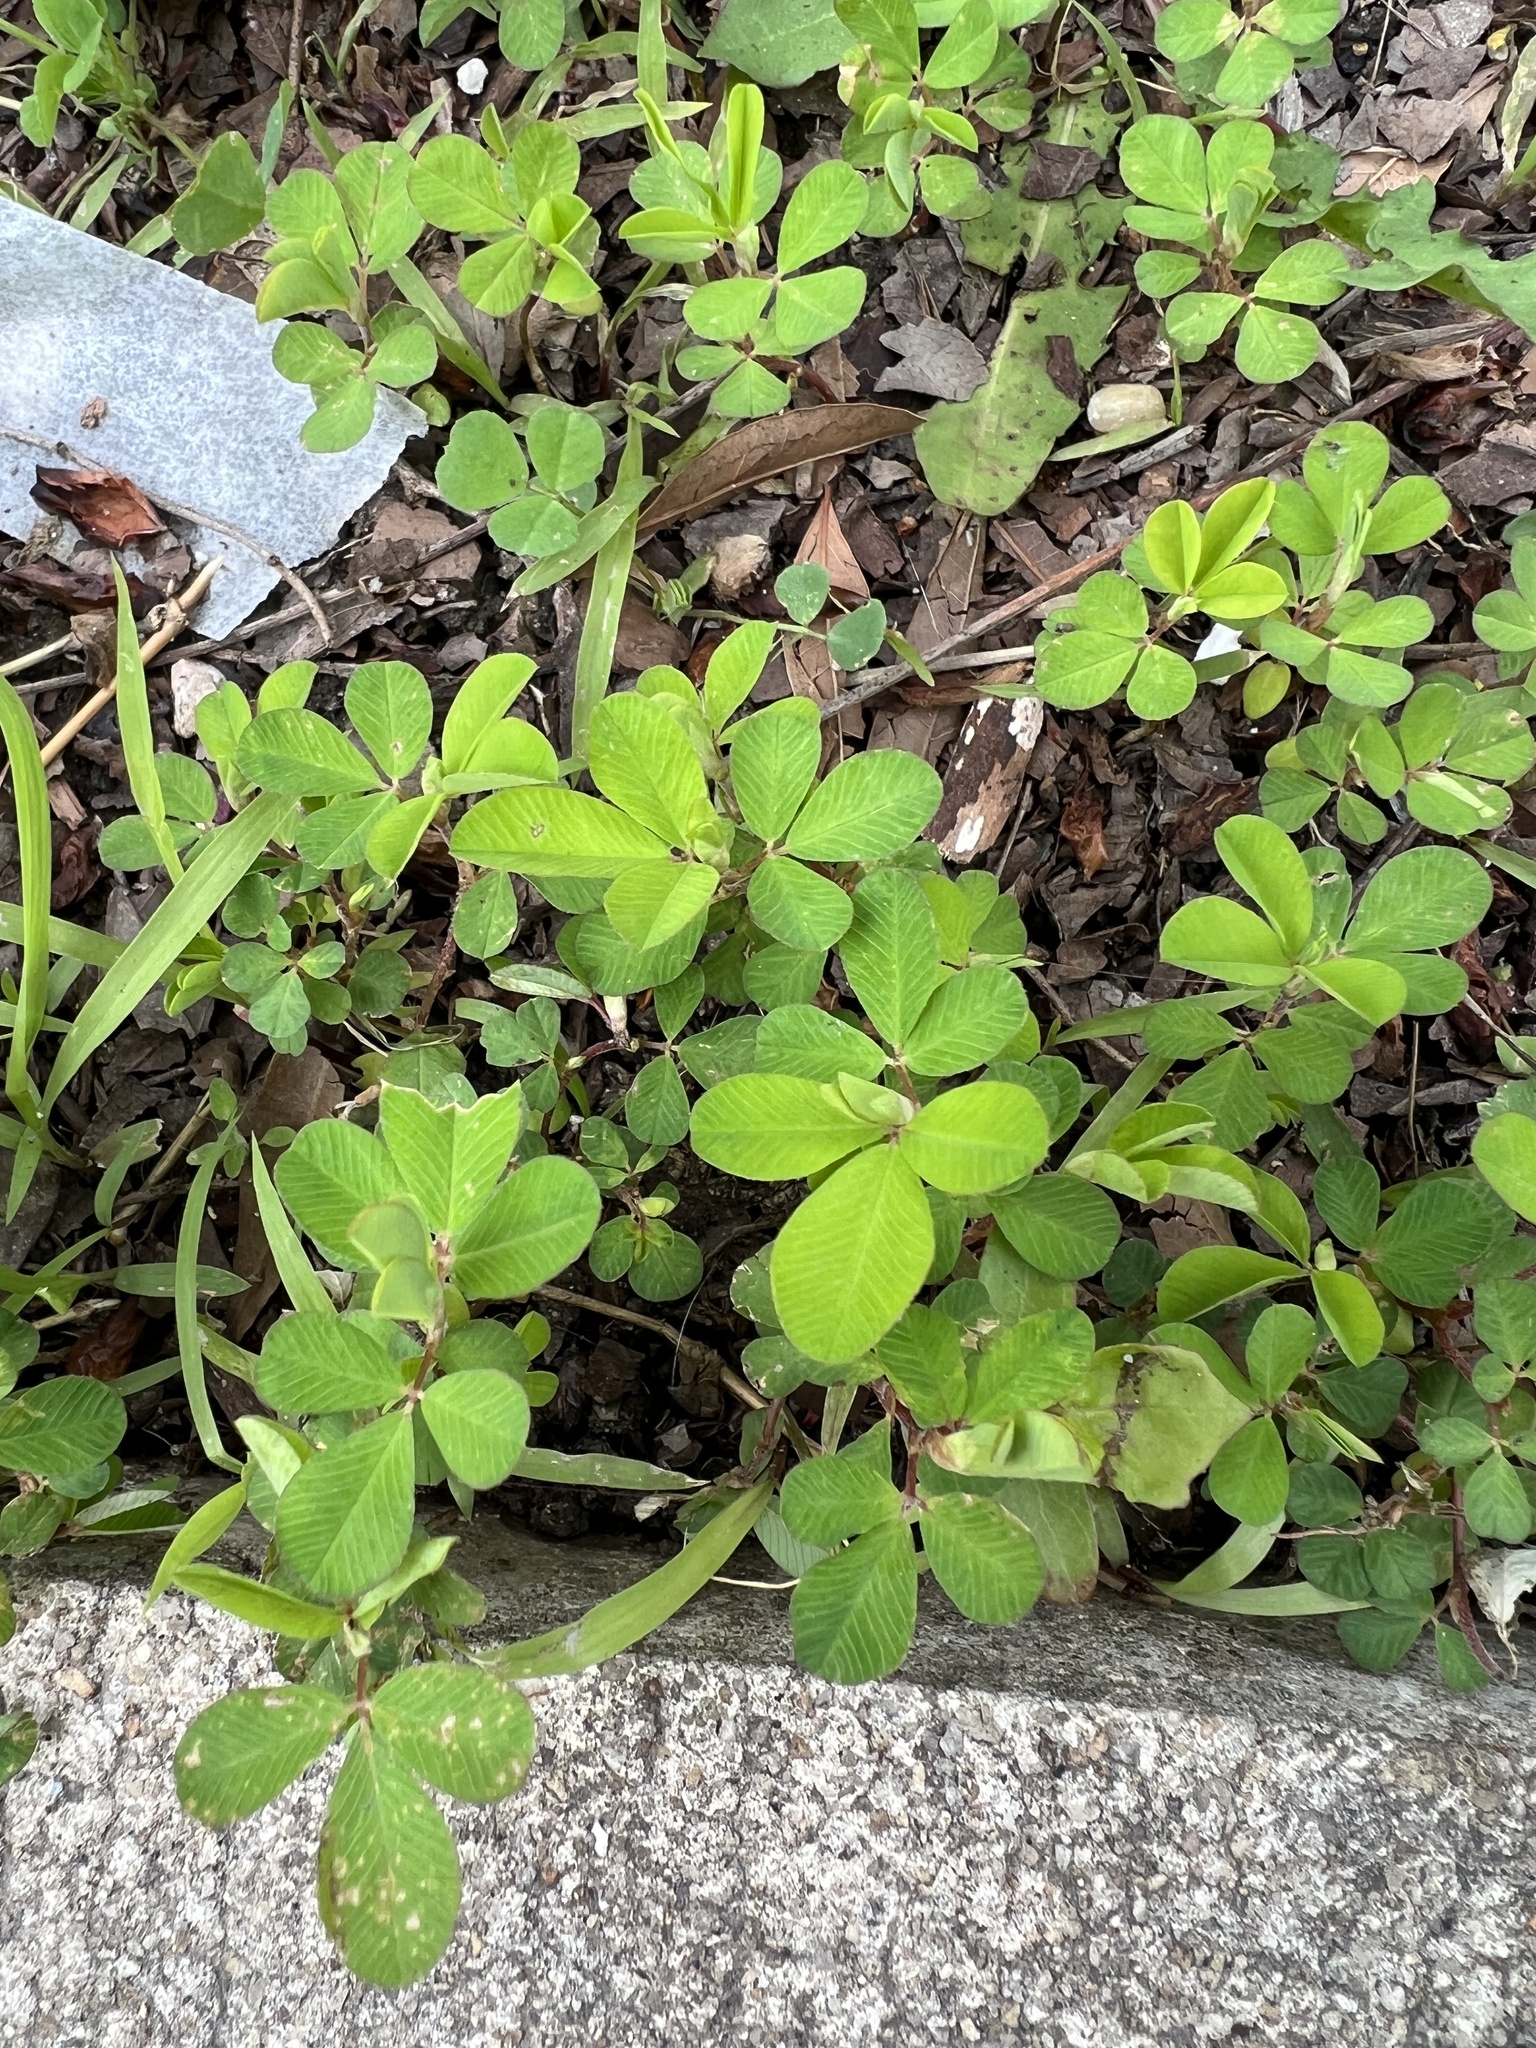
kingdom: Plantae
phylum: Tracheophyta
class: Magnoliopsida
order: Fabales
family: Fabaceae
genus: Kummerowia
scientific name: Kummerowia striata
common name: Japanese clover
